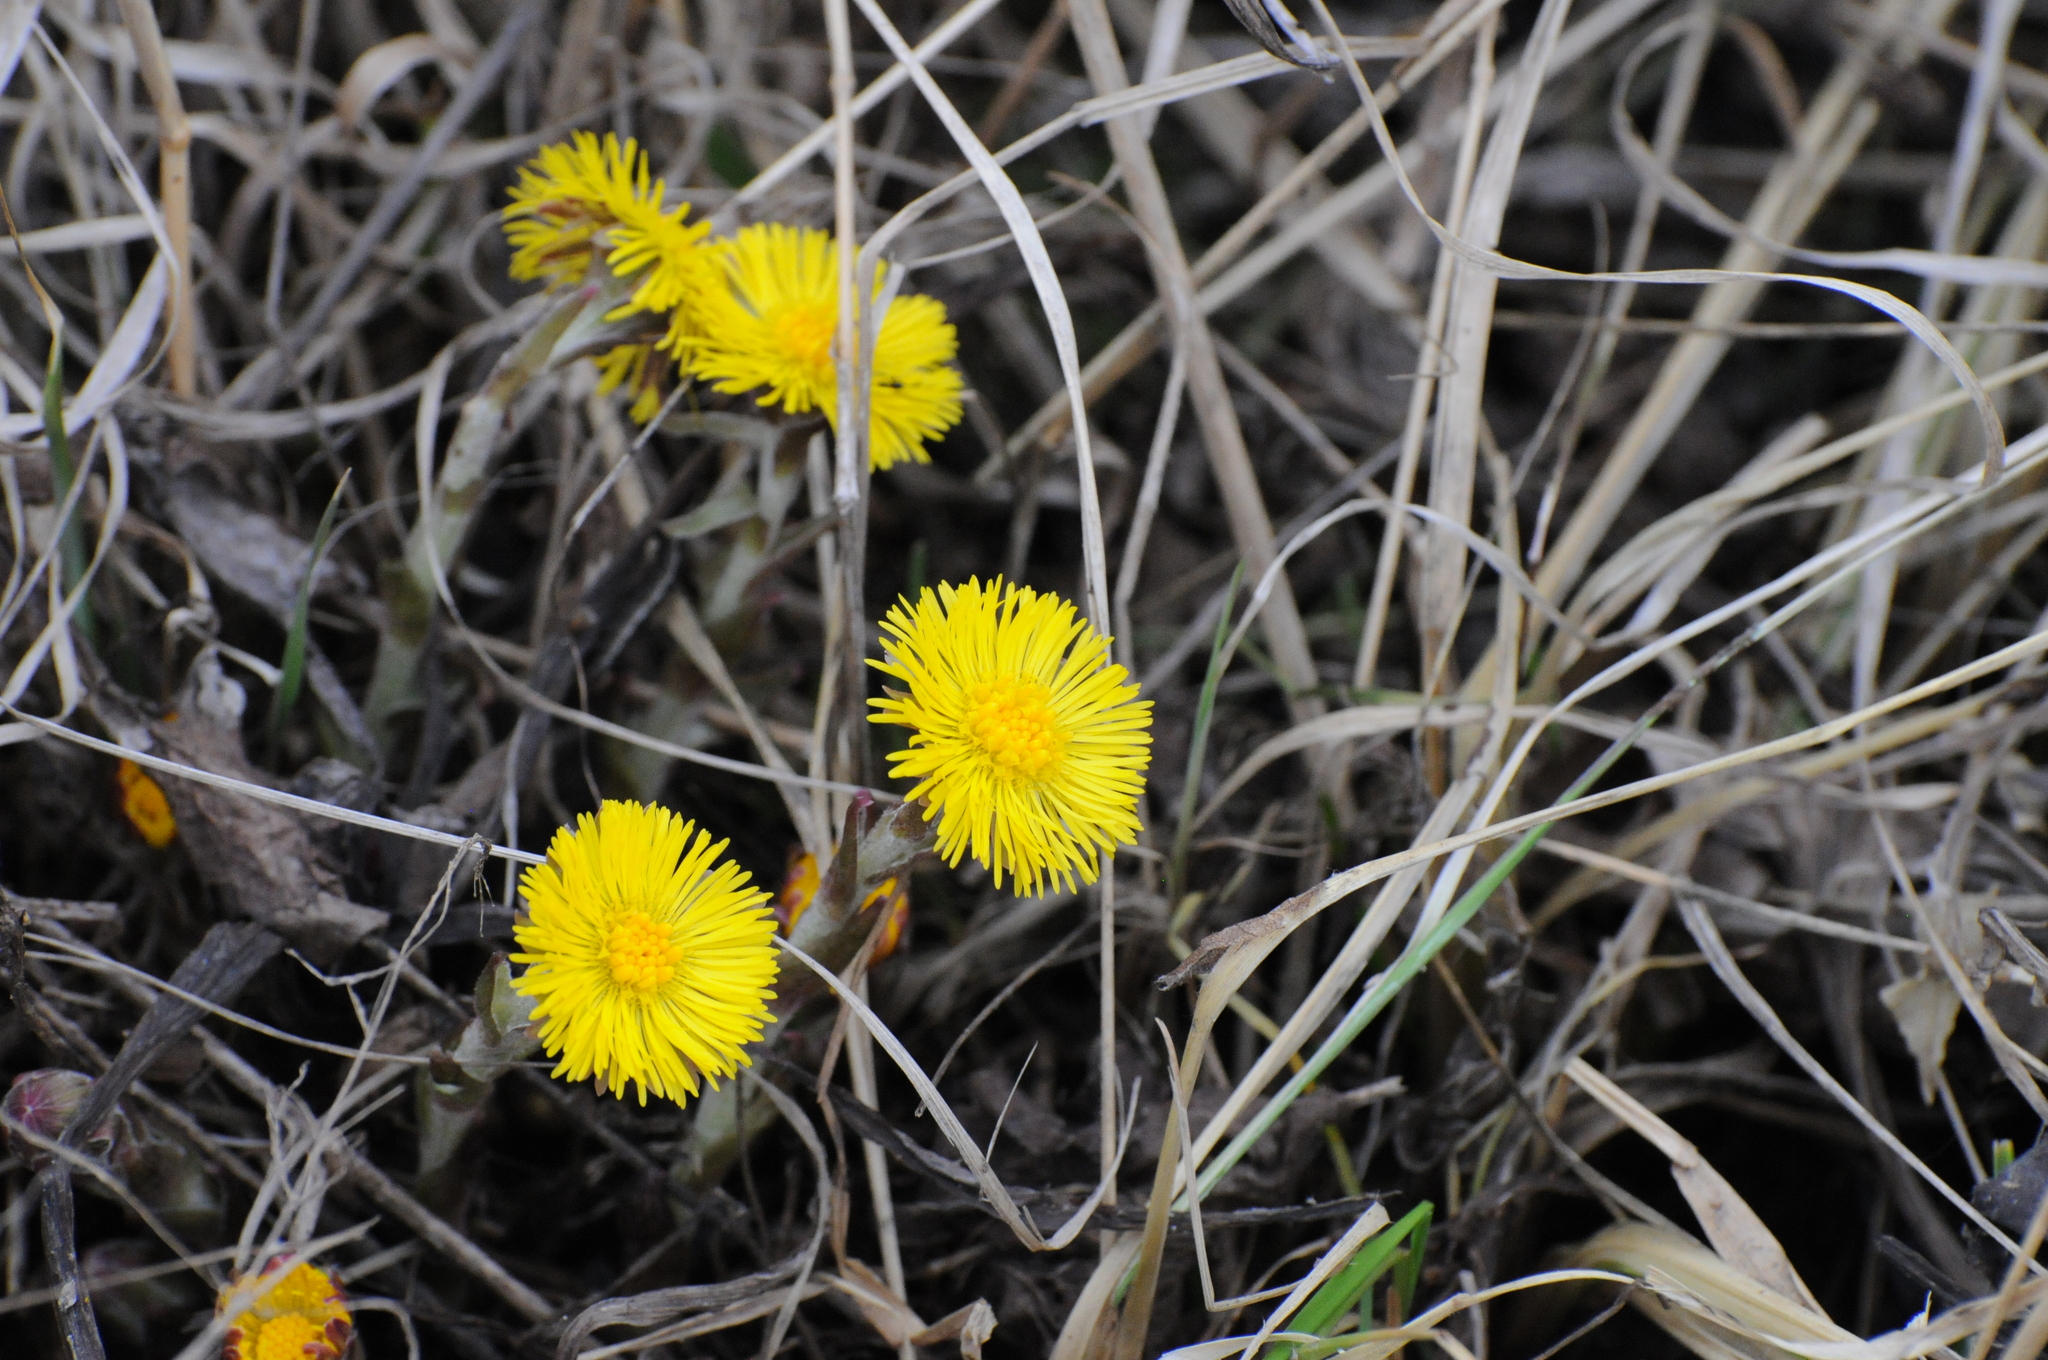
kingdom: Plantae
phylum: Tracheophyta
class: Magnoliopsida
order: Asterales
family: Asteraceae
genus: Tussilago
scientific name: Tussilago farfara
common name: Coltsfoot
